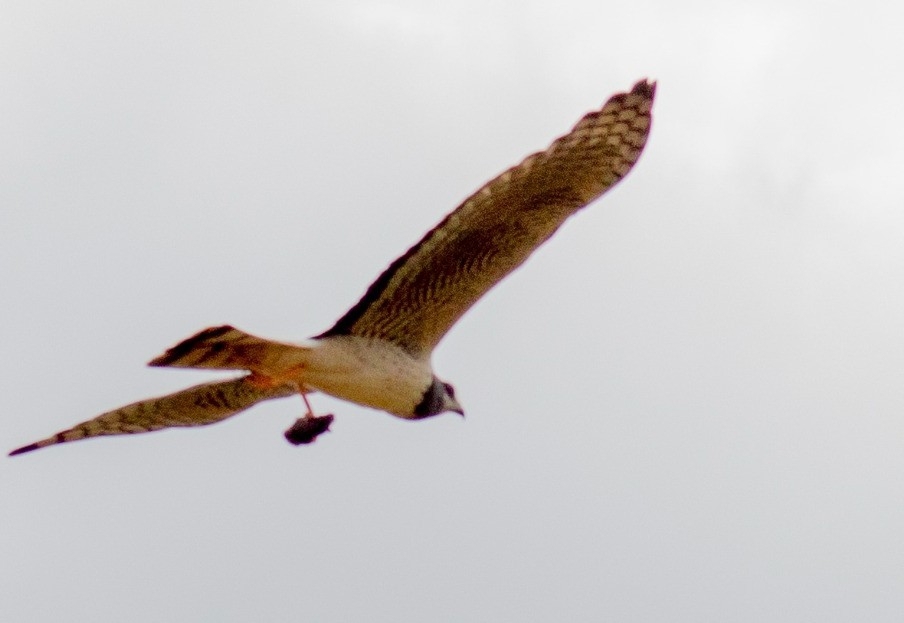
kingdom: Animalia
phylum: Chordata
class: Aves
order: Accipitriformes
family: Accipitridae
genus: Circus
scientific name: Circus buffoni
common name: Long-winged harrier
